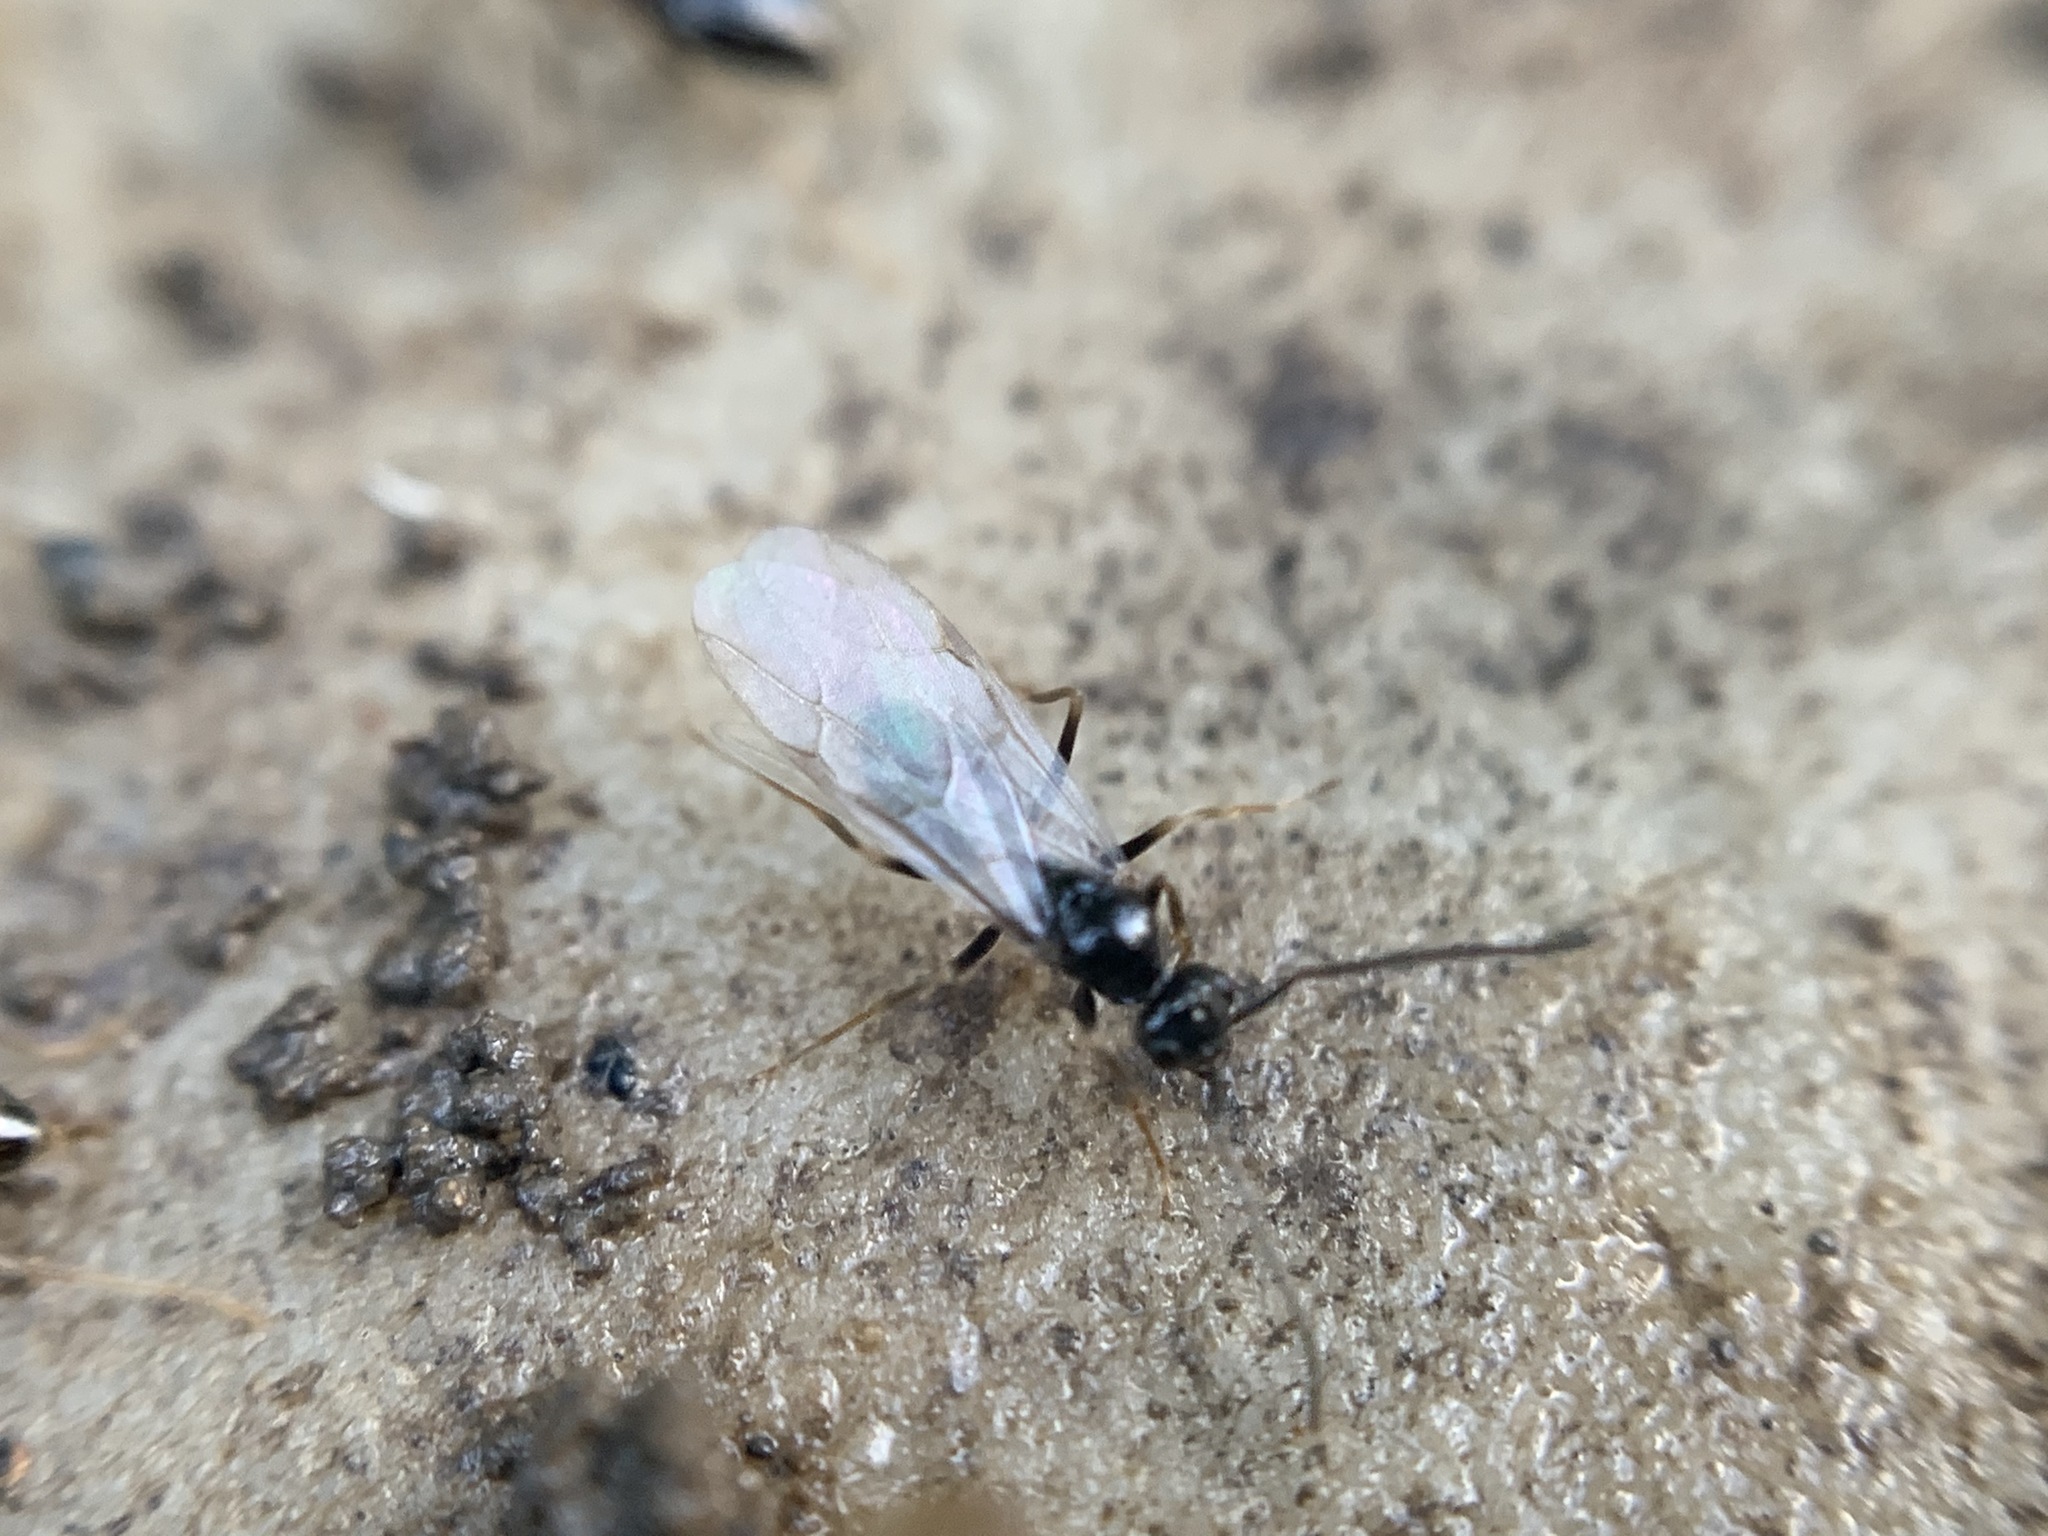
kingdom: Animalia
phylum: Arthropoda
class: Insecta
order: Hymenoptera
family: Formicidae
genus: Prenolepis
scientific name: Prenolepis imparis
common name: Small honey ant
